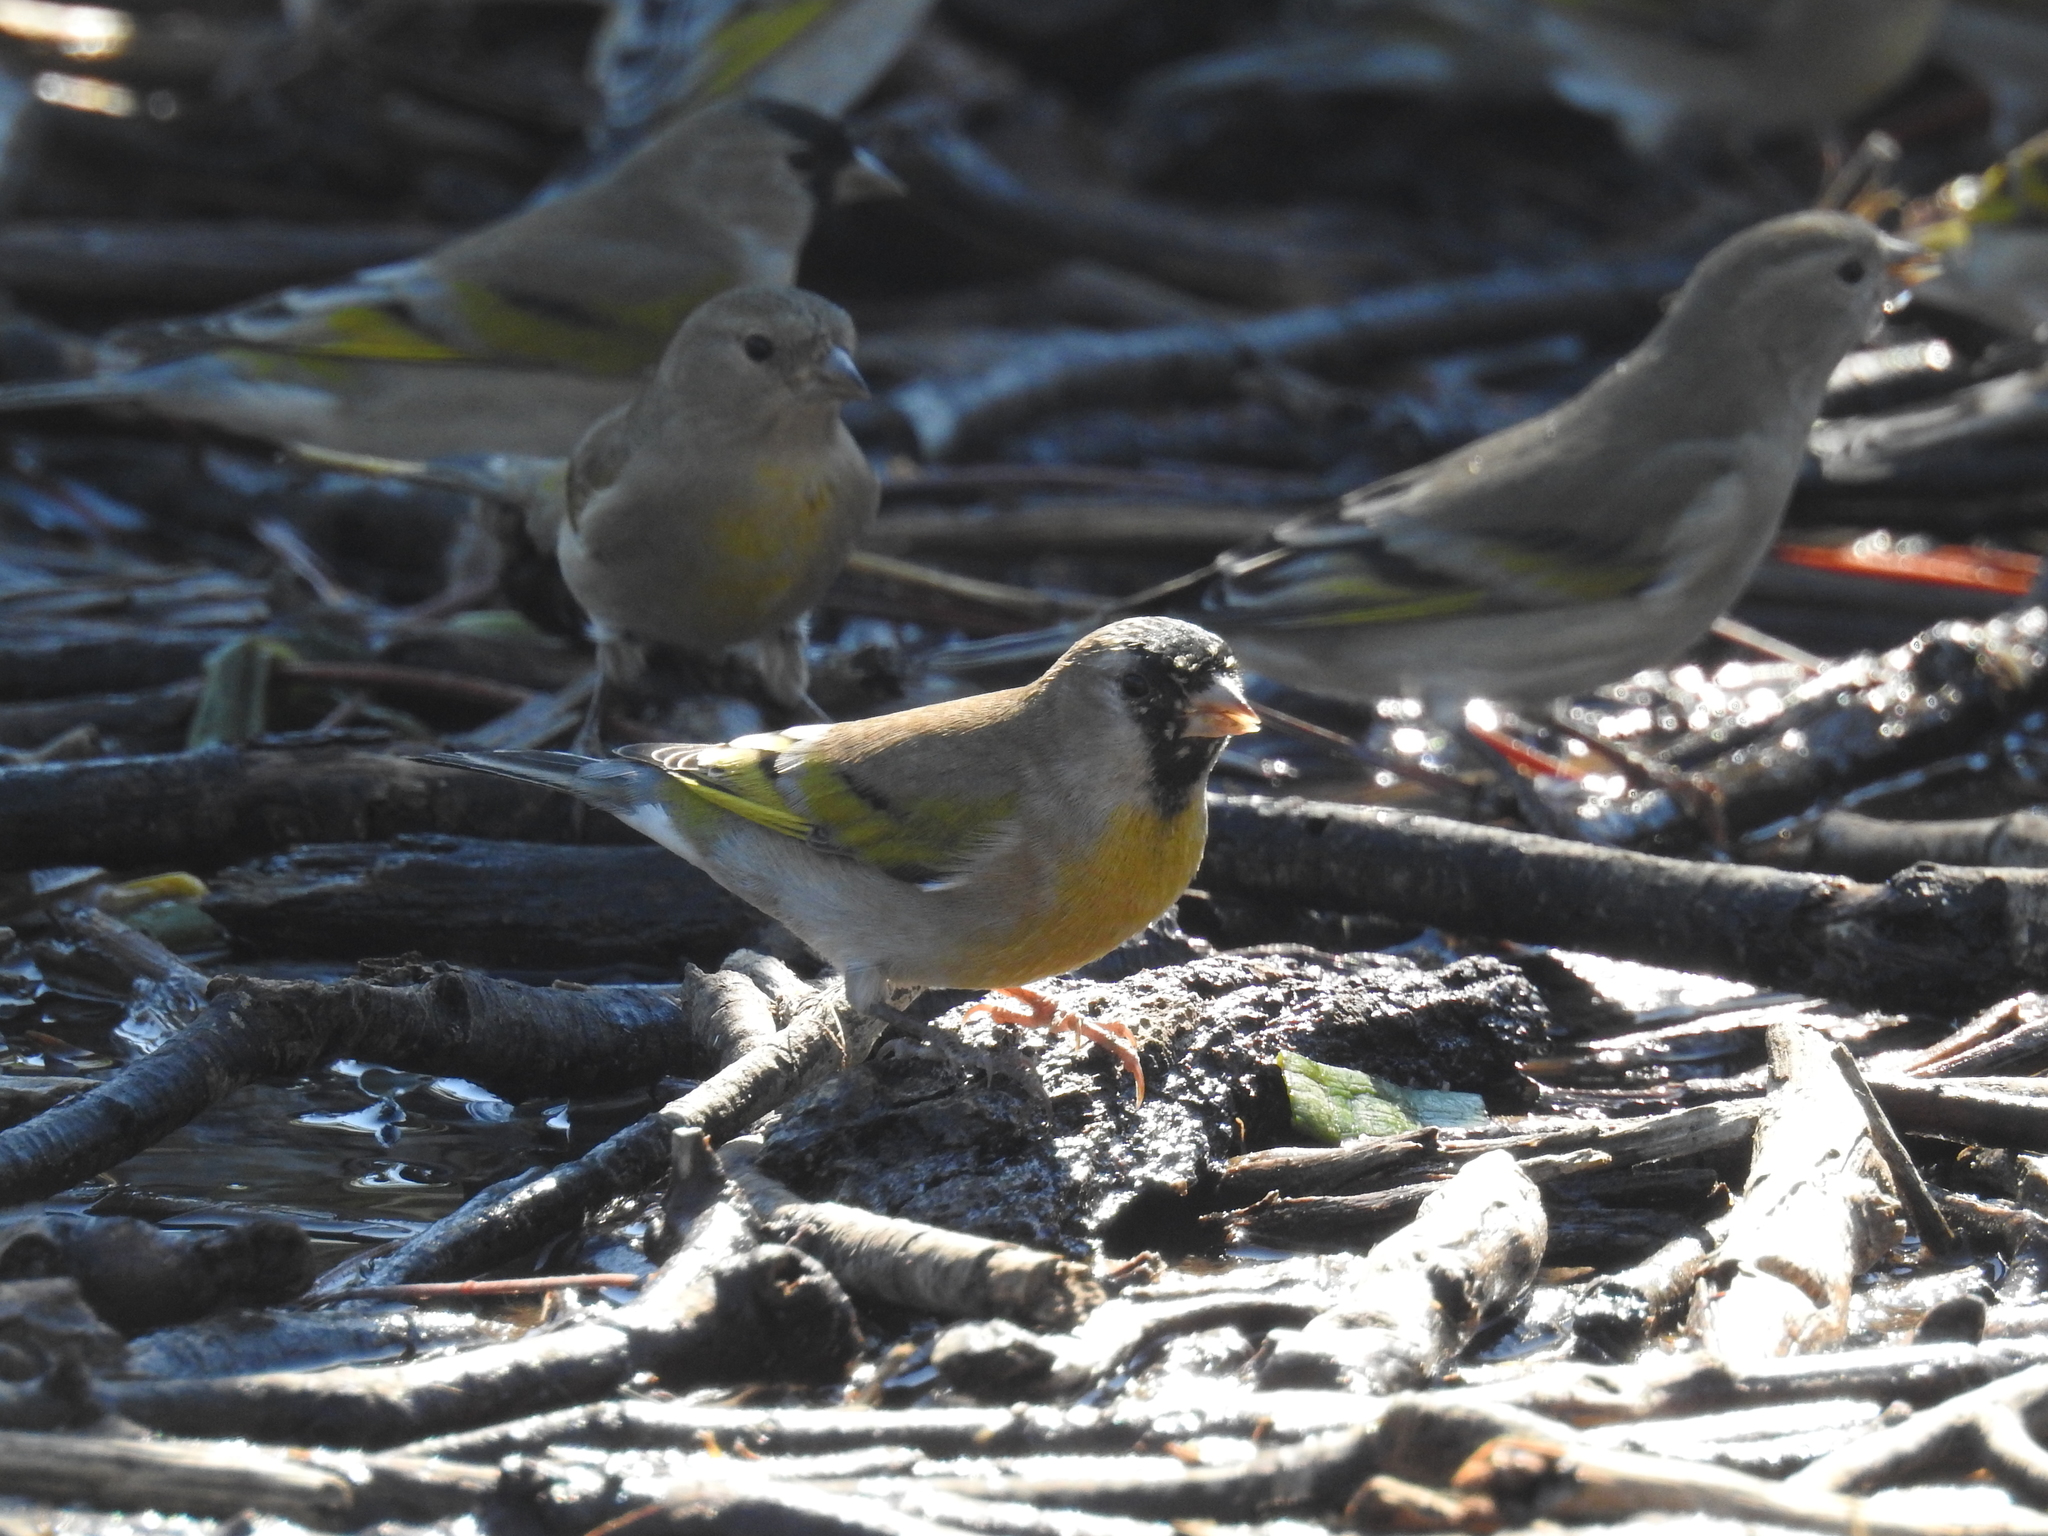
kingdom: Animalia
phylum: Chordata
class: Aves
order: Passeriformes
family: Fringillidae
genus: Spinus
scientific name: Spinus lawrencei
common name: Lawrence's goldfinch
